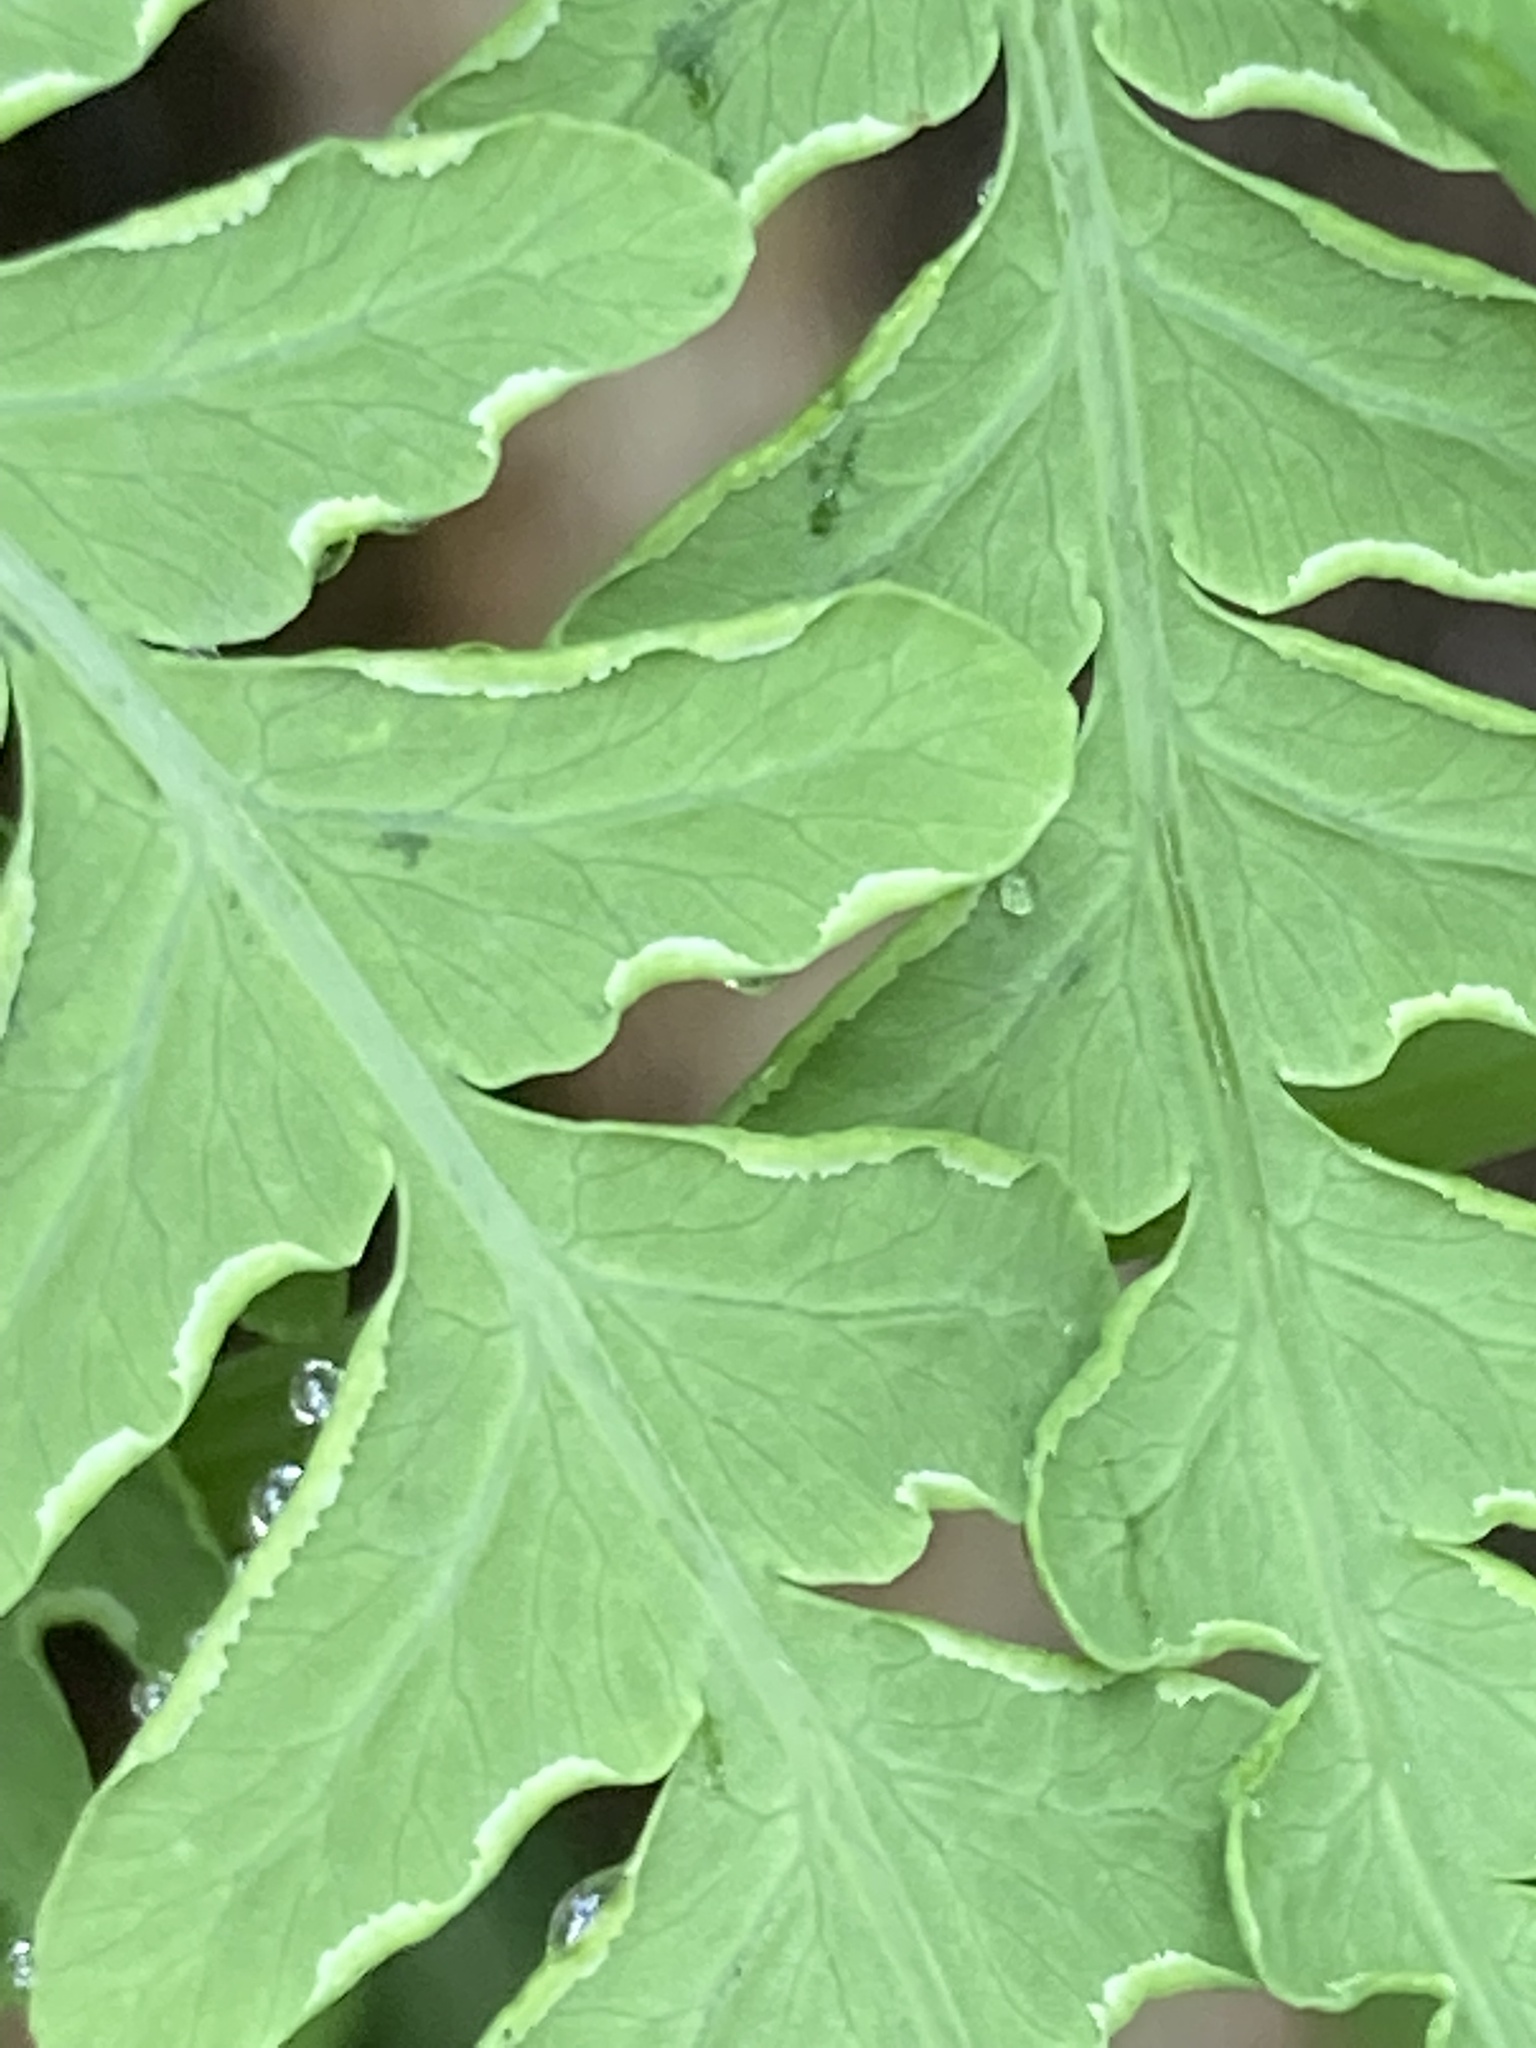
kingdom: Plantae
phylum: Tracheophyta
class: Polypodiopsida
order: Polypodiales
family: Dennstaedtiaceae
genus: Histiopteris
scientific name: Histiopteris incisa
